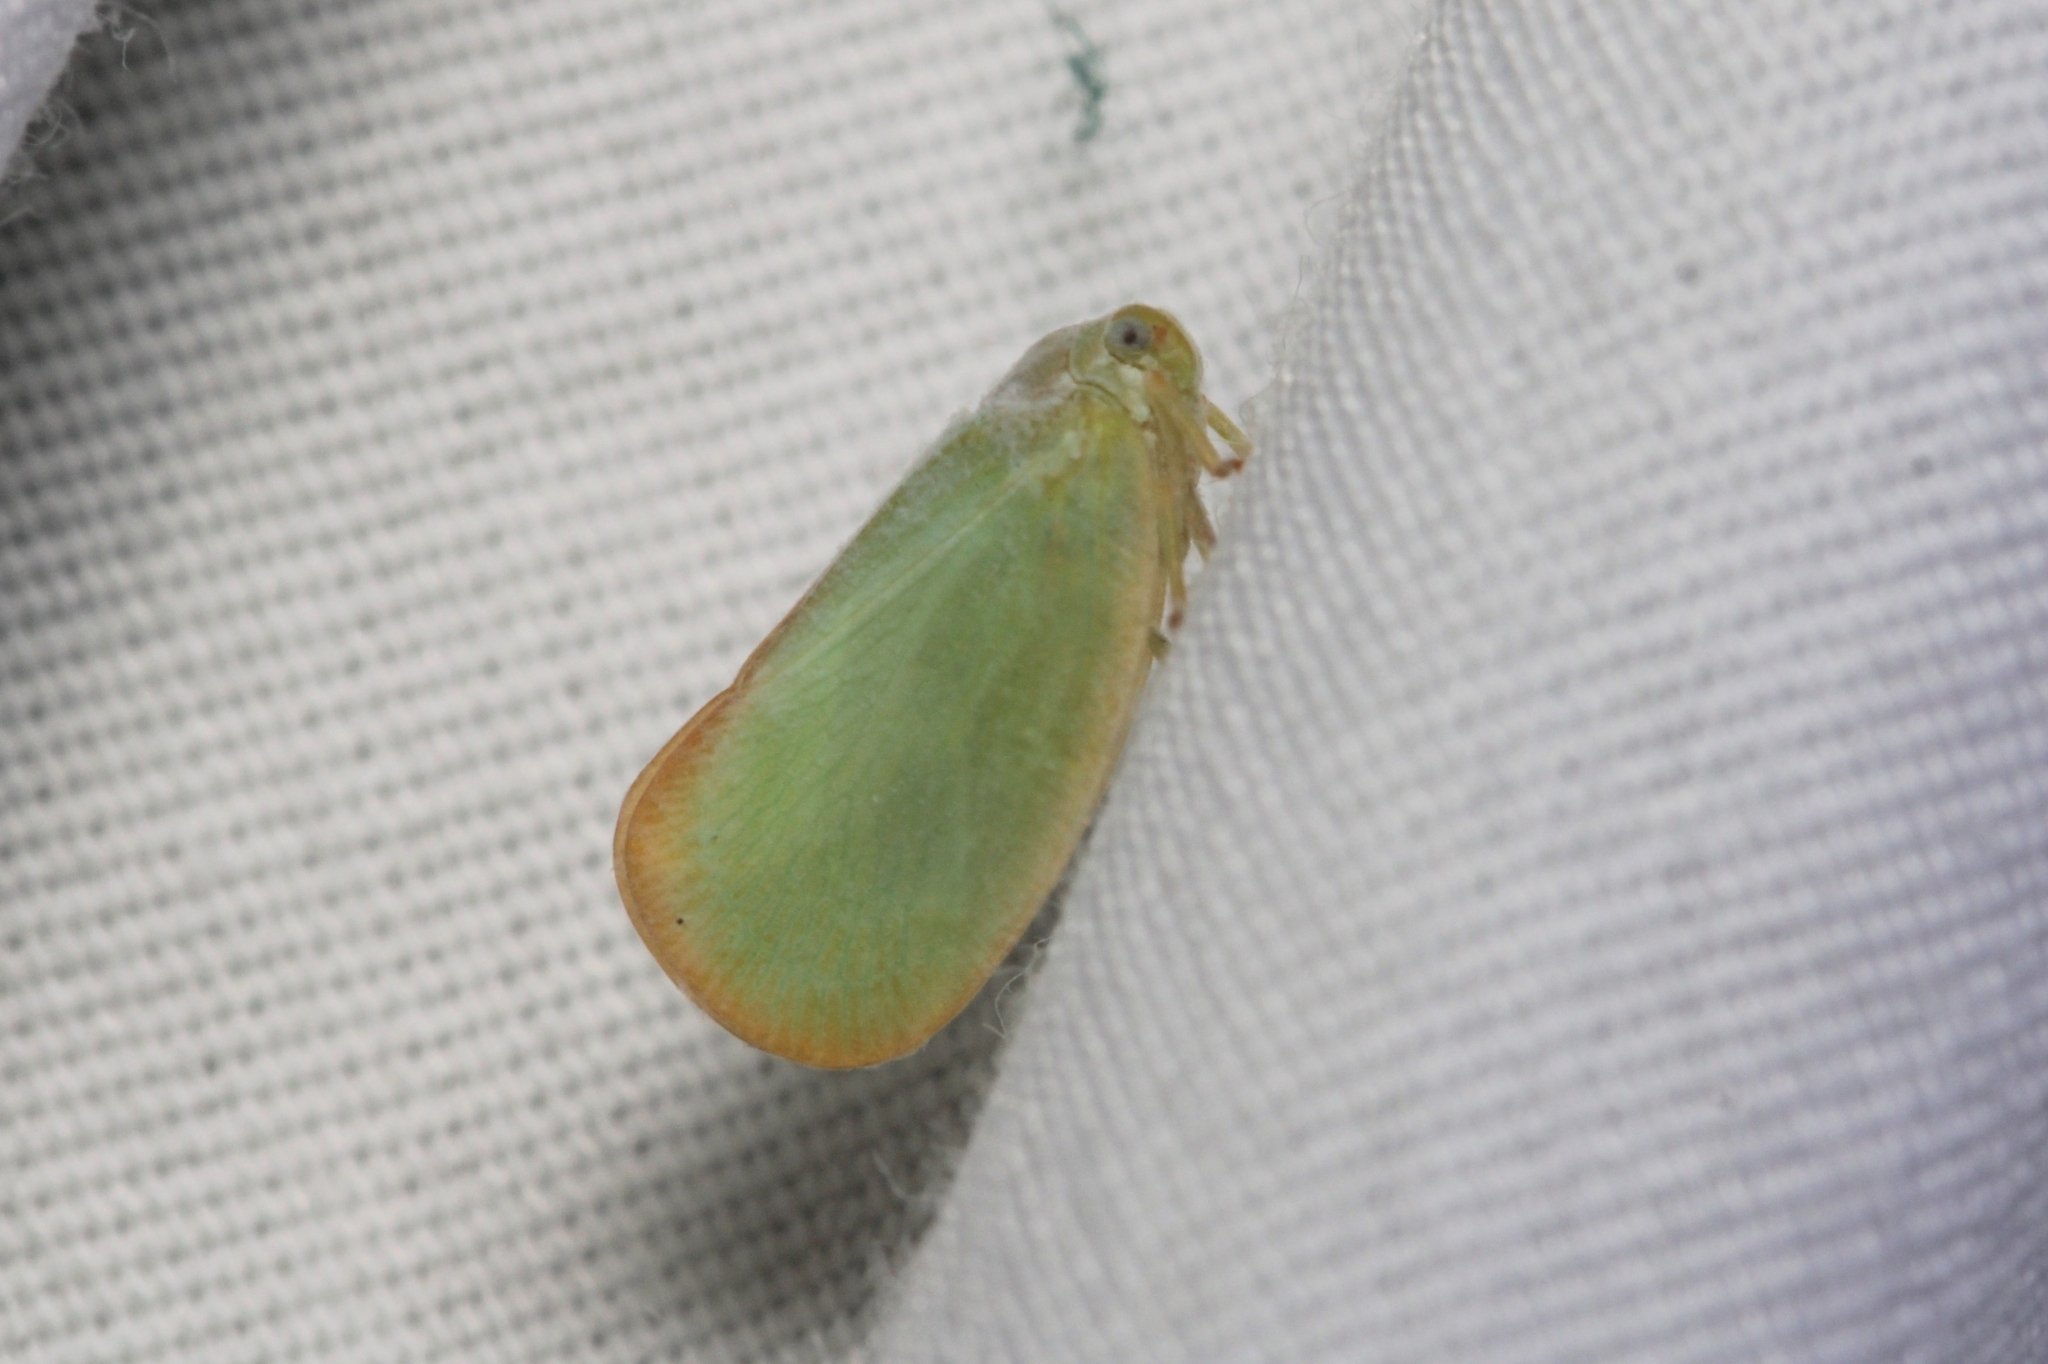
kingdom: Animalia
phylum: Arthropoda
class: Insecta
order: Hemiptera
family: Flatidae
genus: Ormenoides
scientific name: Ormenoides venusta
